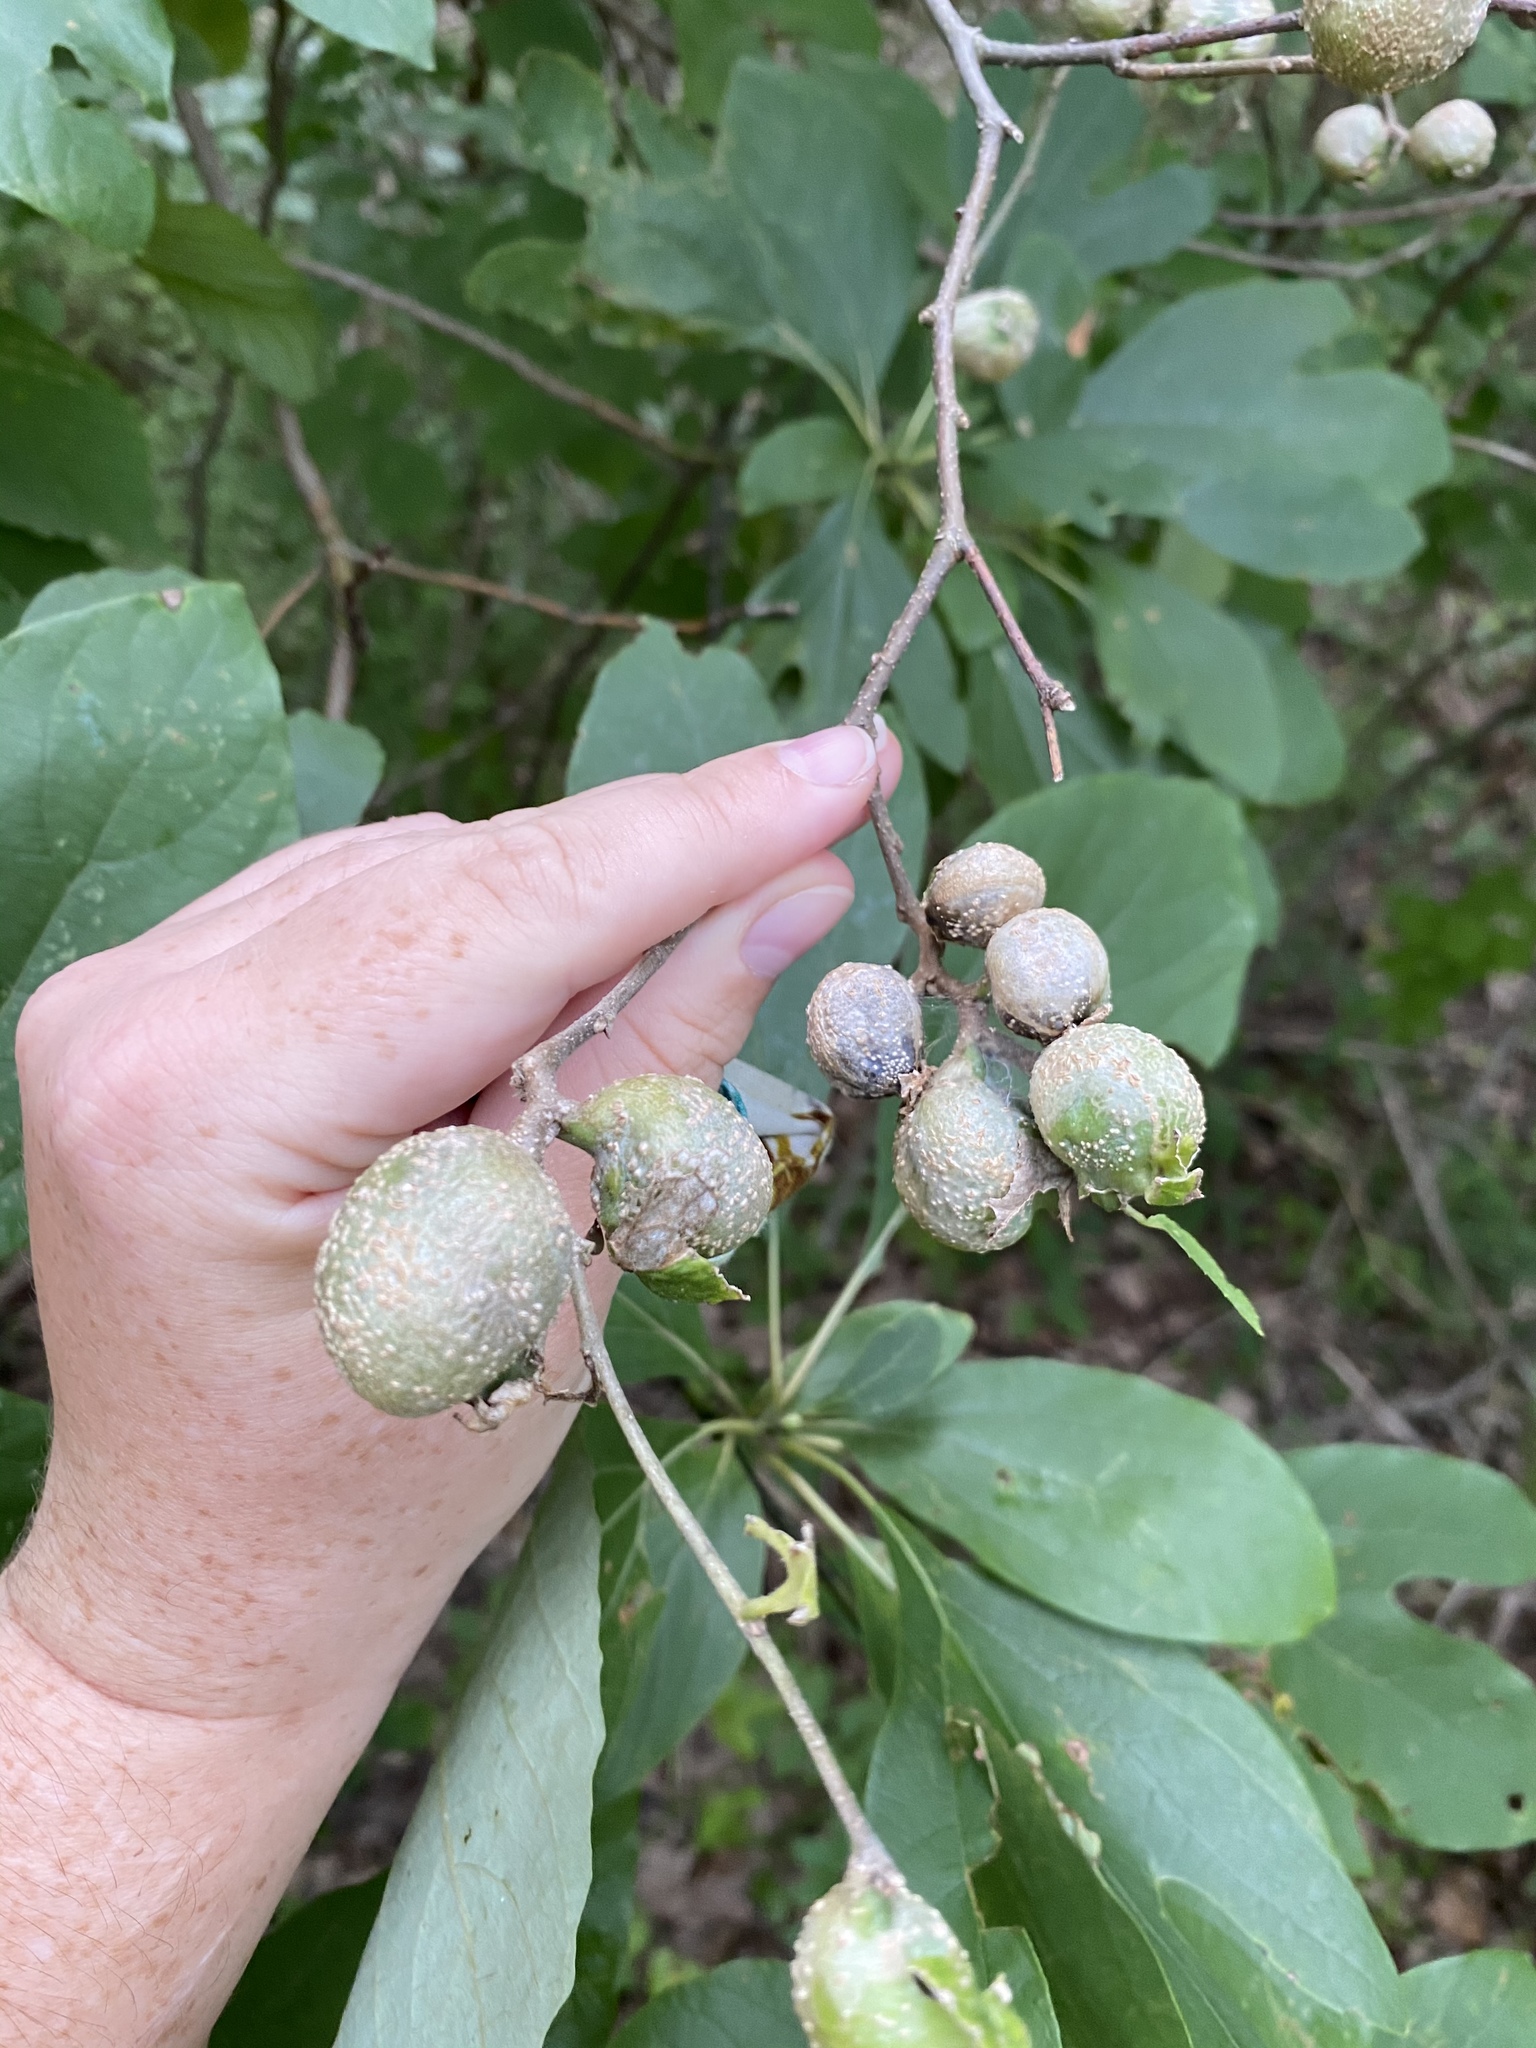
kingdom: Animalia
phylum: Arthropoda
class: Insecta
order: Hemiptera
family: Aphalaridae
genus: Pachypsylla
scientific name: Pachypsylla venusta
